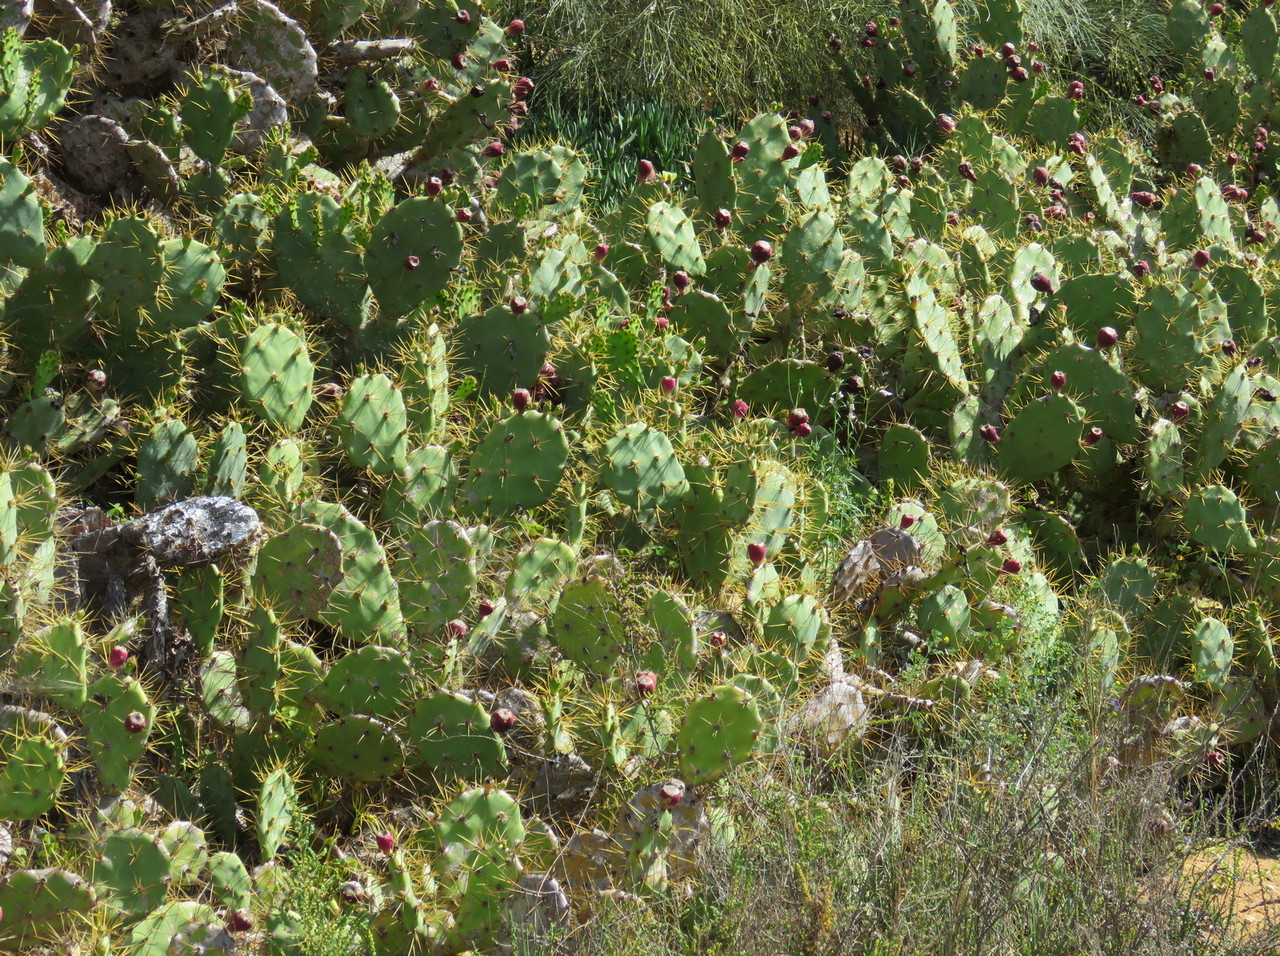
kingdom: Plantae
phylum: Tracheophyta
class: Magnoliopsida
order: Caryophyllales
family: Cactaceae
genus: Opuntia
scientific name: Opuntia stricta
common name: Erect pricklypear
